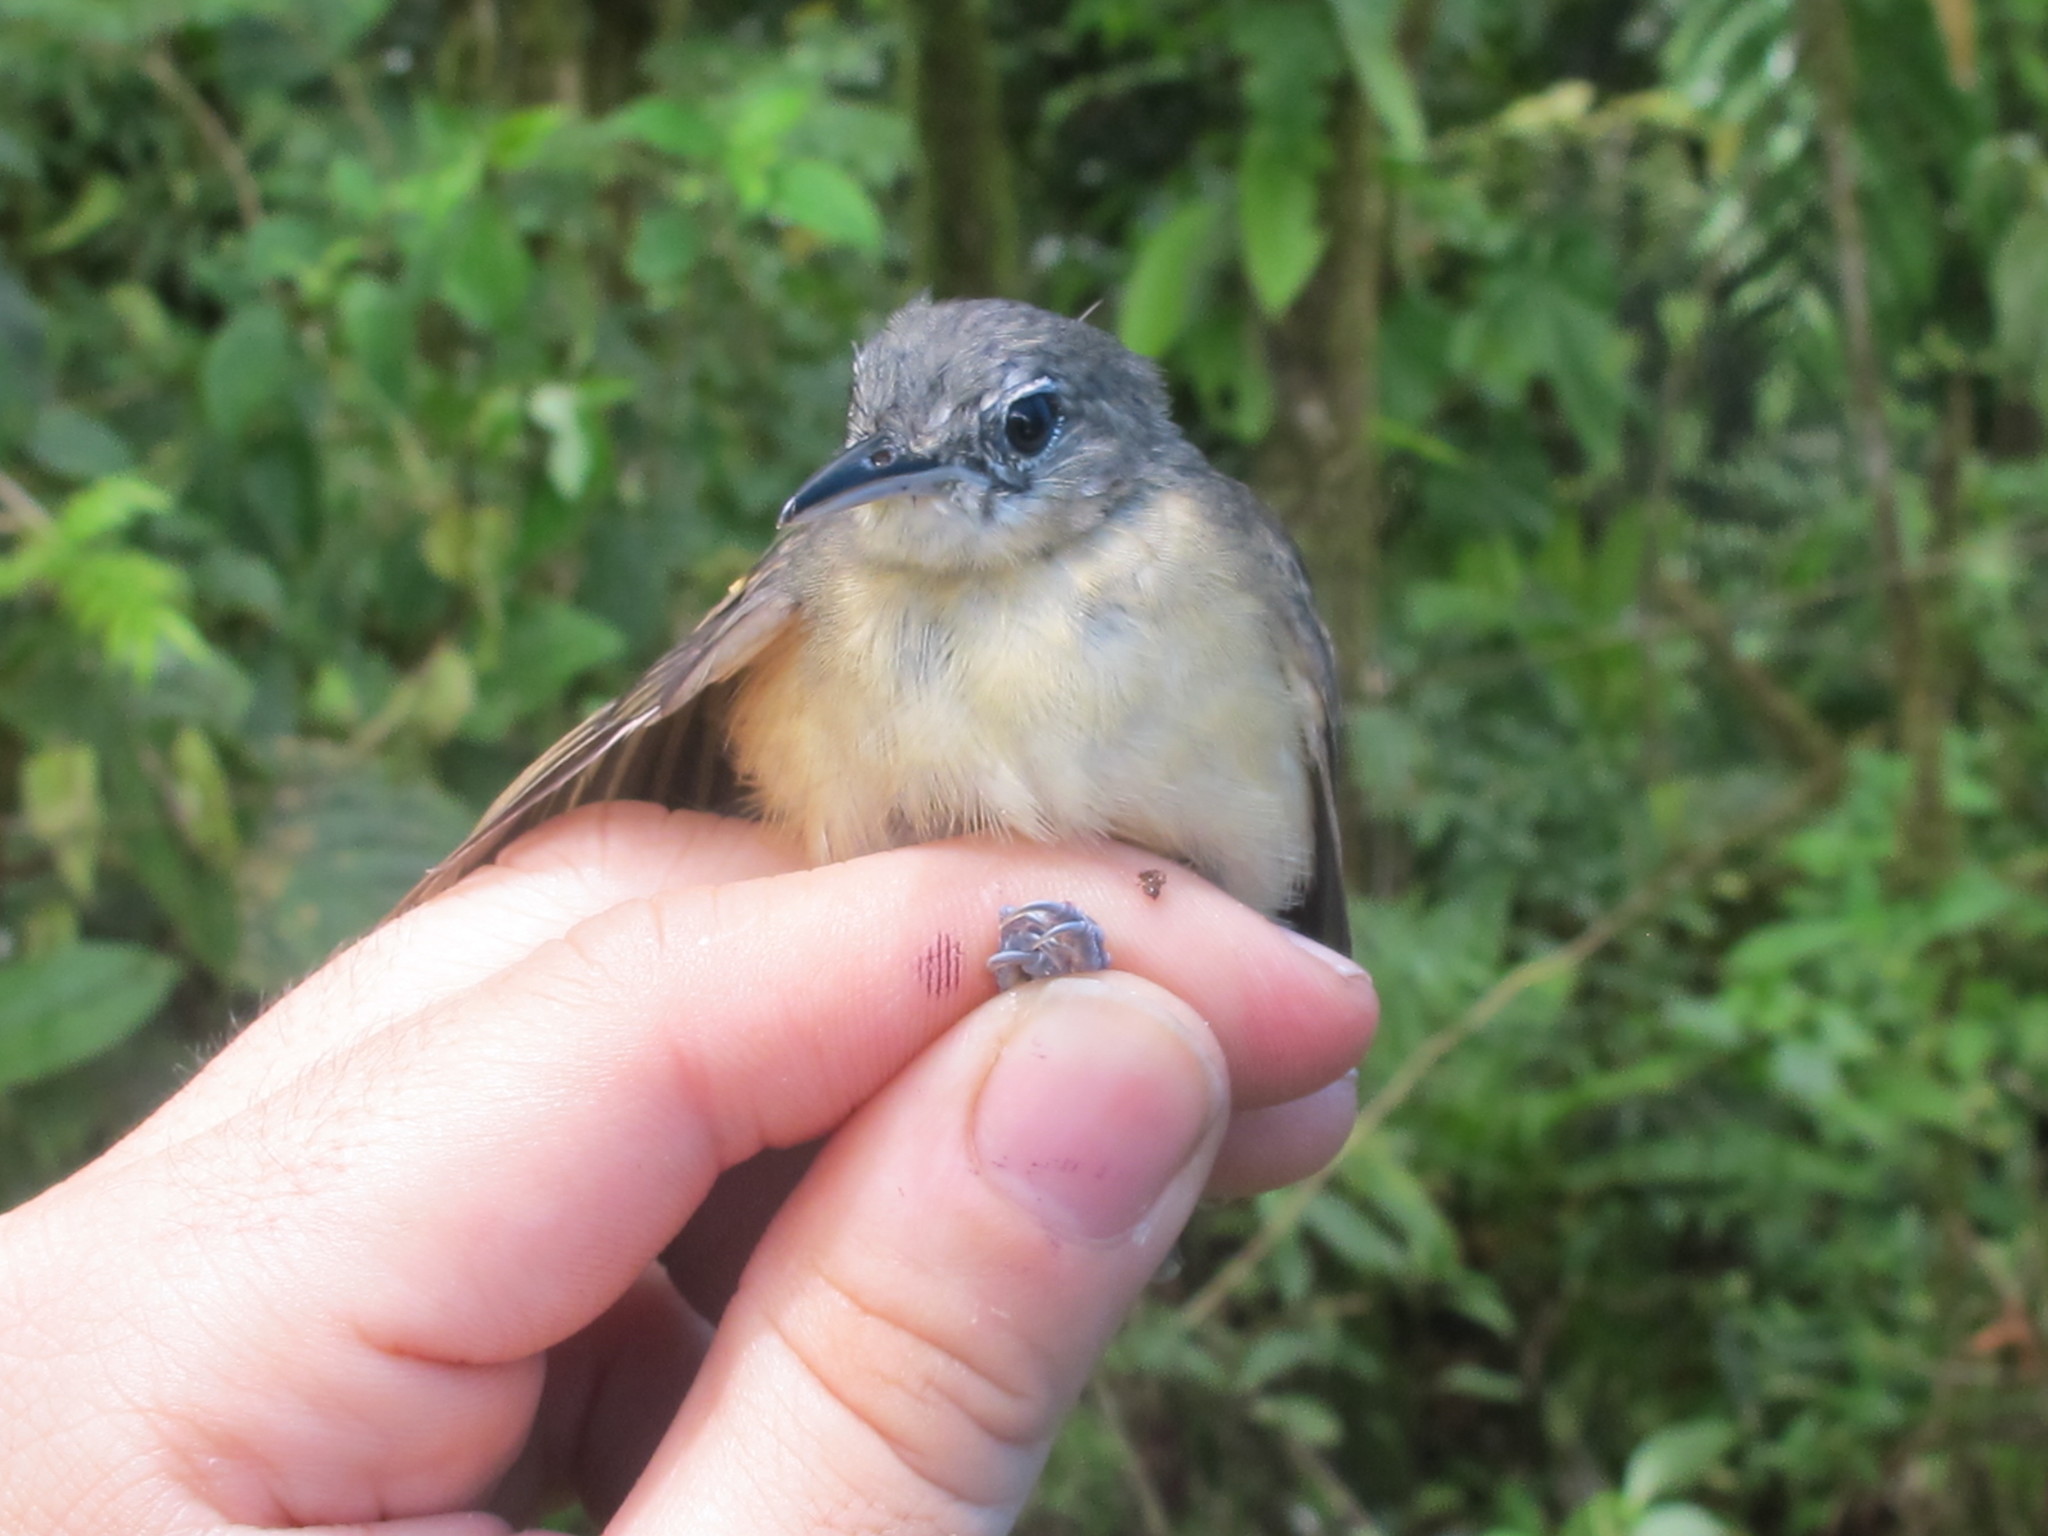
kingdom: Animalia
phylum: Chordata
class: Aves
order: Passeriformes
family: Thamnophilidae
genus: Myrmotherula
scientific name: Myrmotherula axillaris
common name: White-flanked antwren
